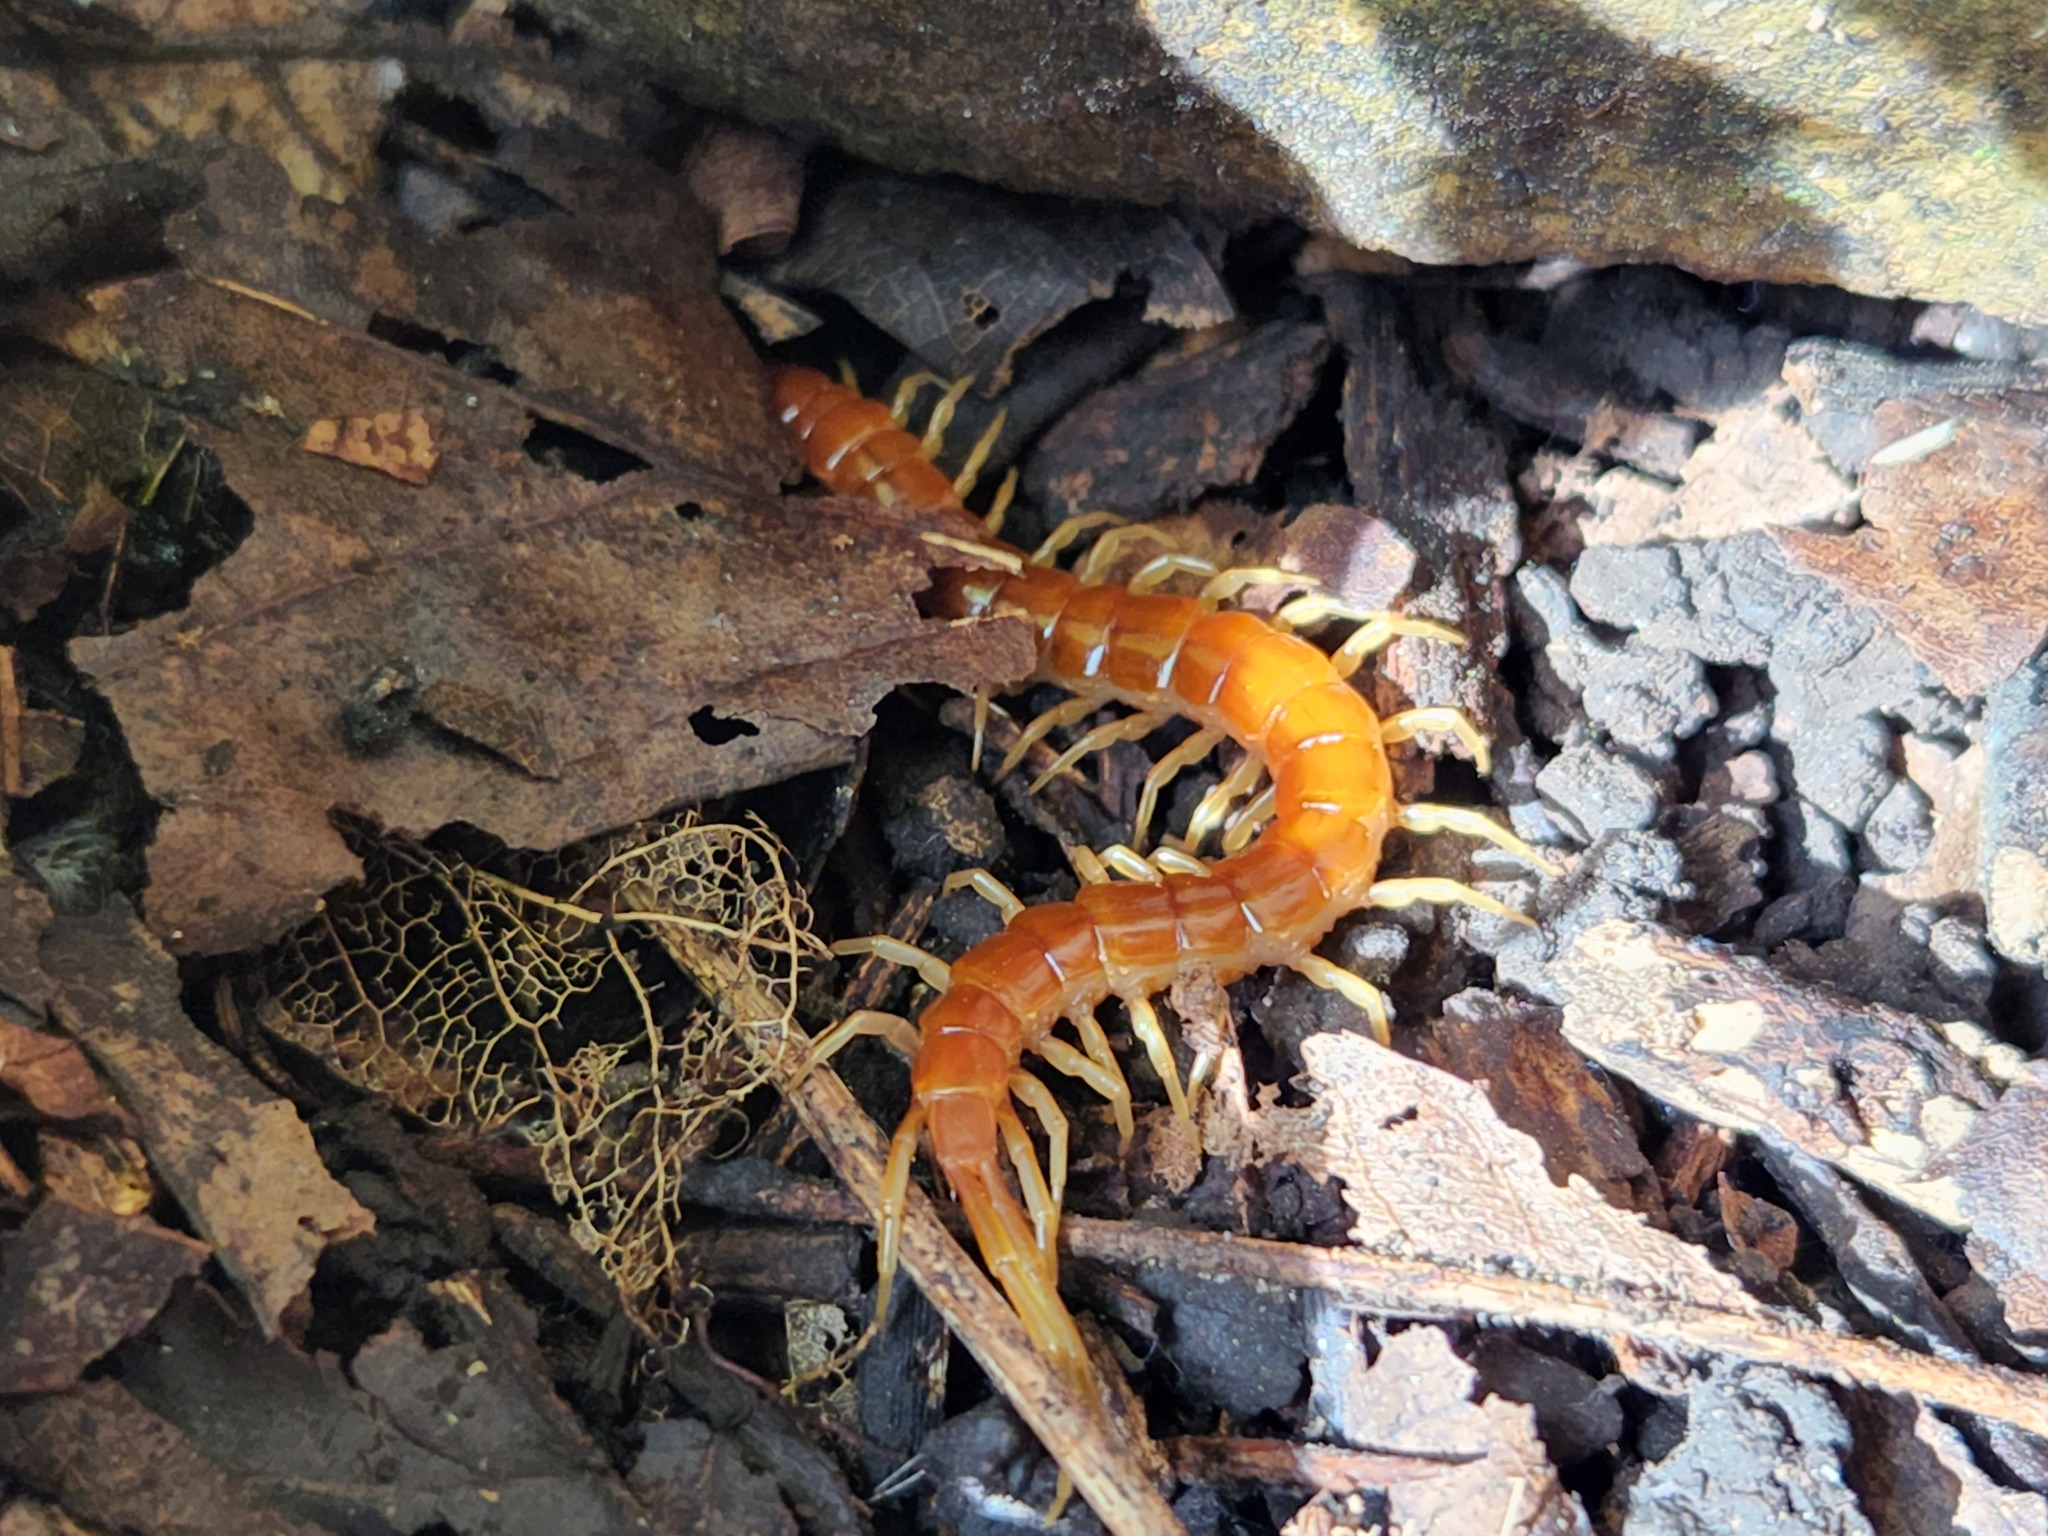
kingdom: Animalia
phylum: Arthropoda
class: Chilopoda
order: Scolopendromorpha
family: Scolopocryptopidae
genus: Scolopocryptops
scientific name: Scolopocryptops sexspinosus
